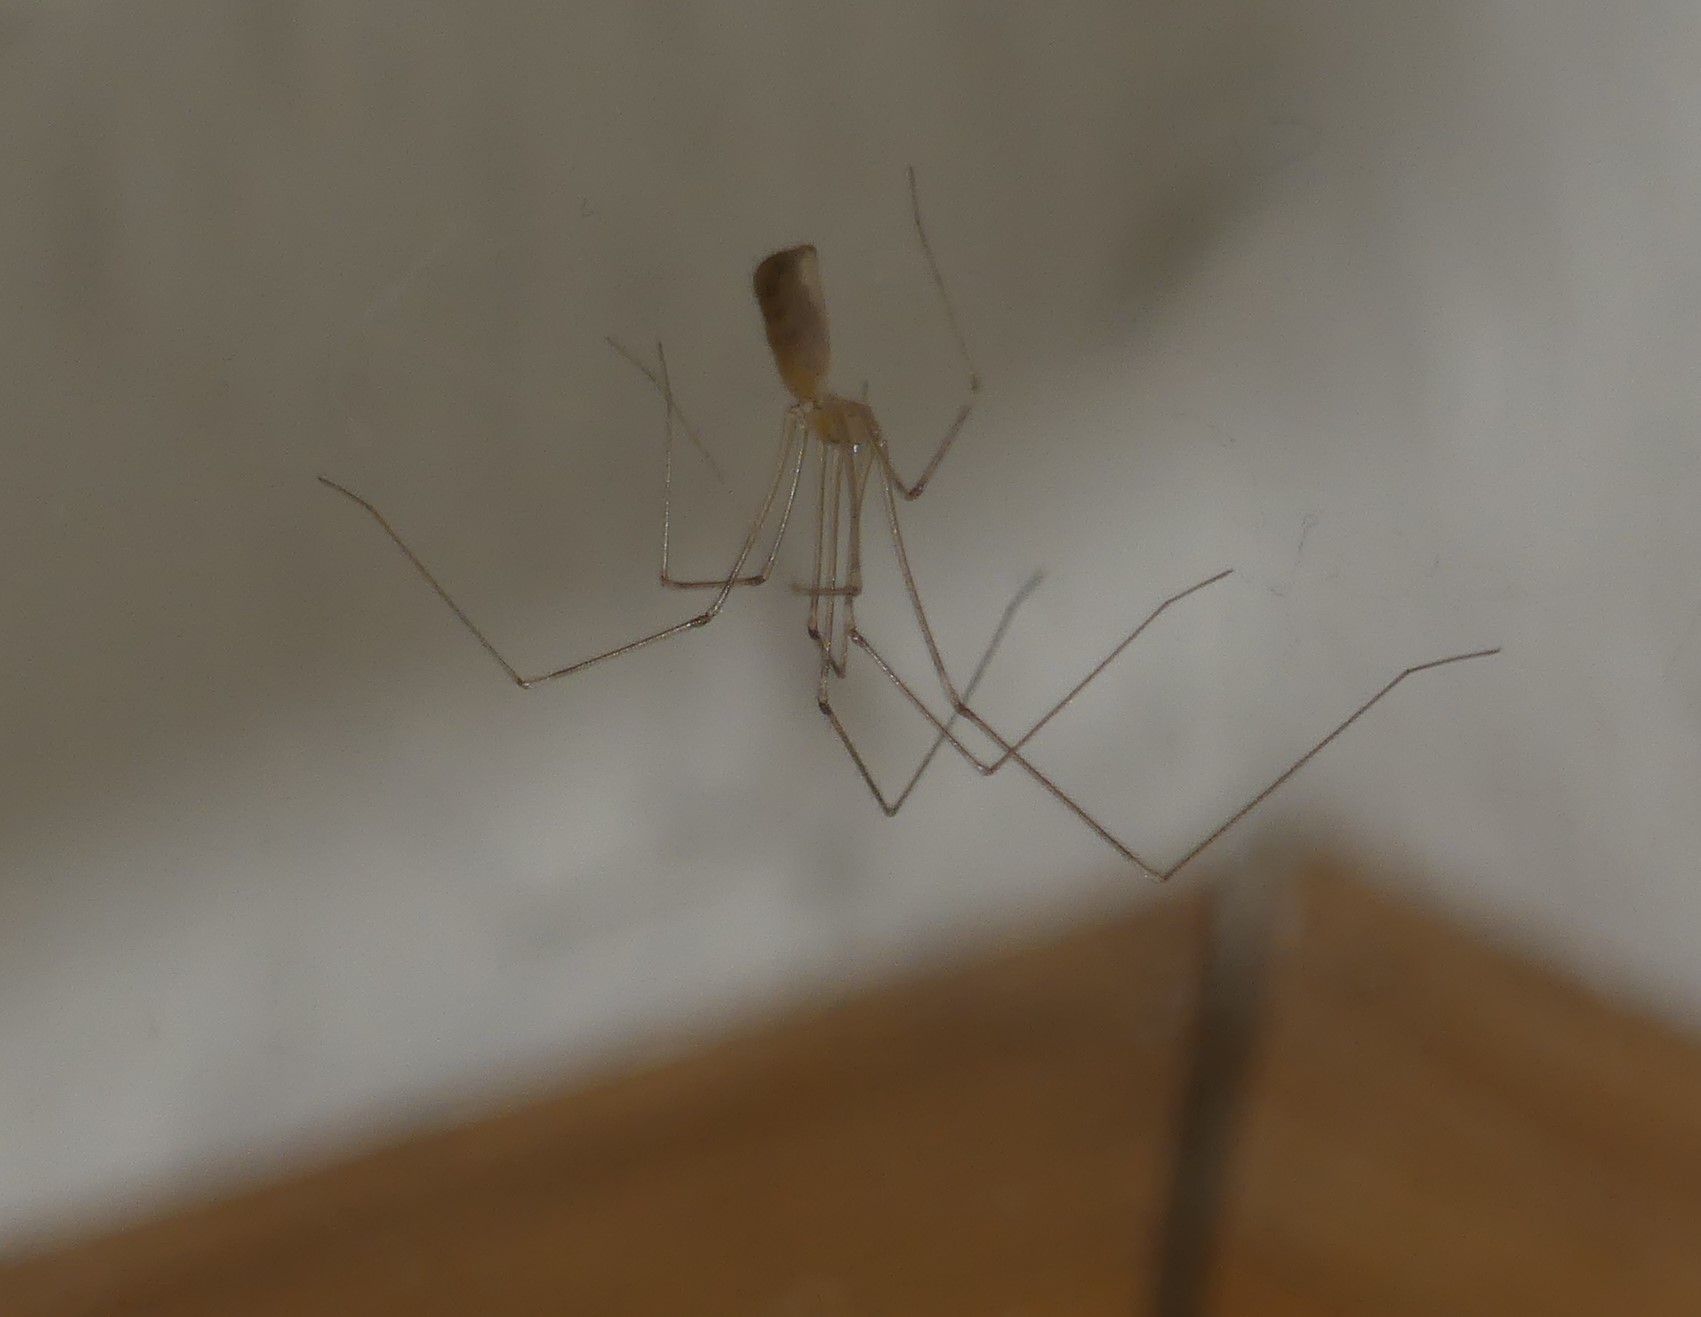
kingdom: Animalia
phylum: Arthropoda
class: Arachnida
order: Araneae
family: Pholcidae
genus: Pholcus
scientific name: Pholcus phalangioides
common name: Longbodied cellar spider
